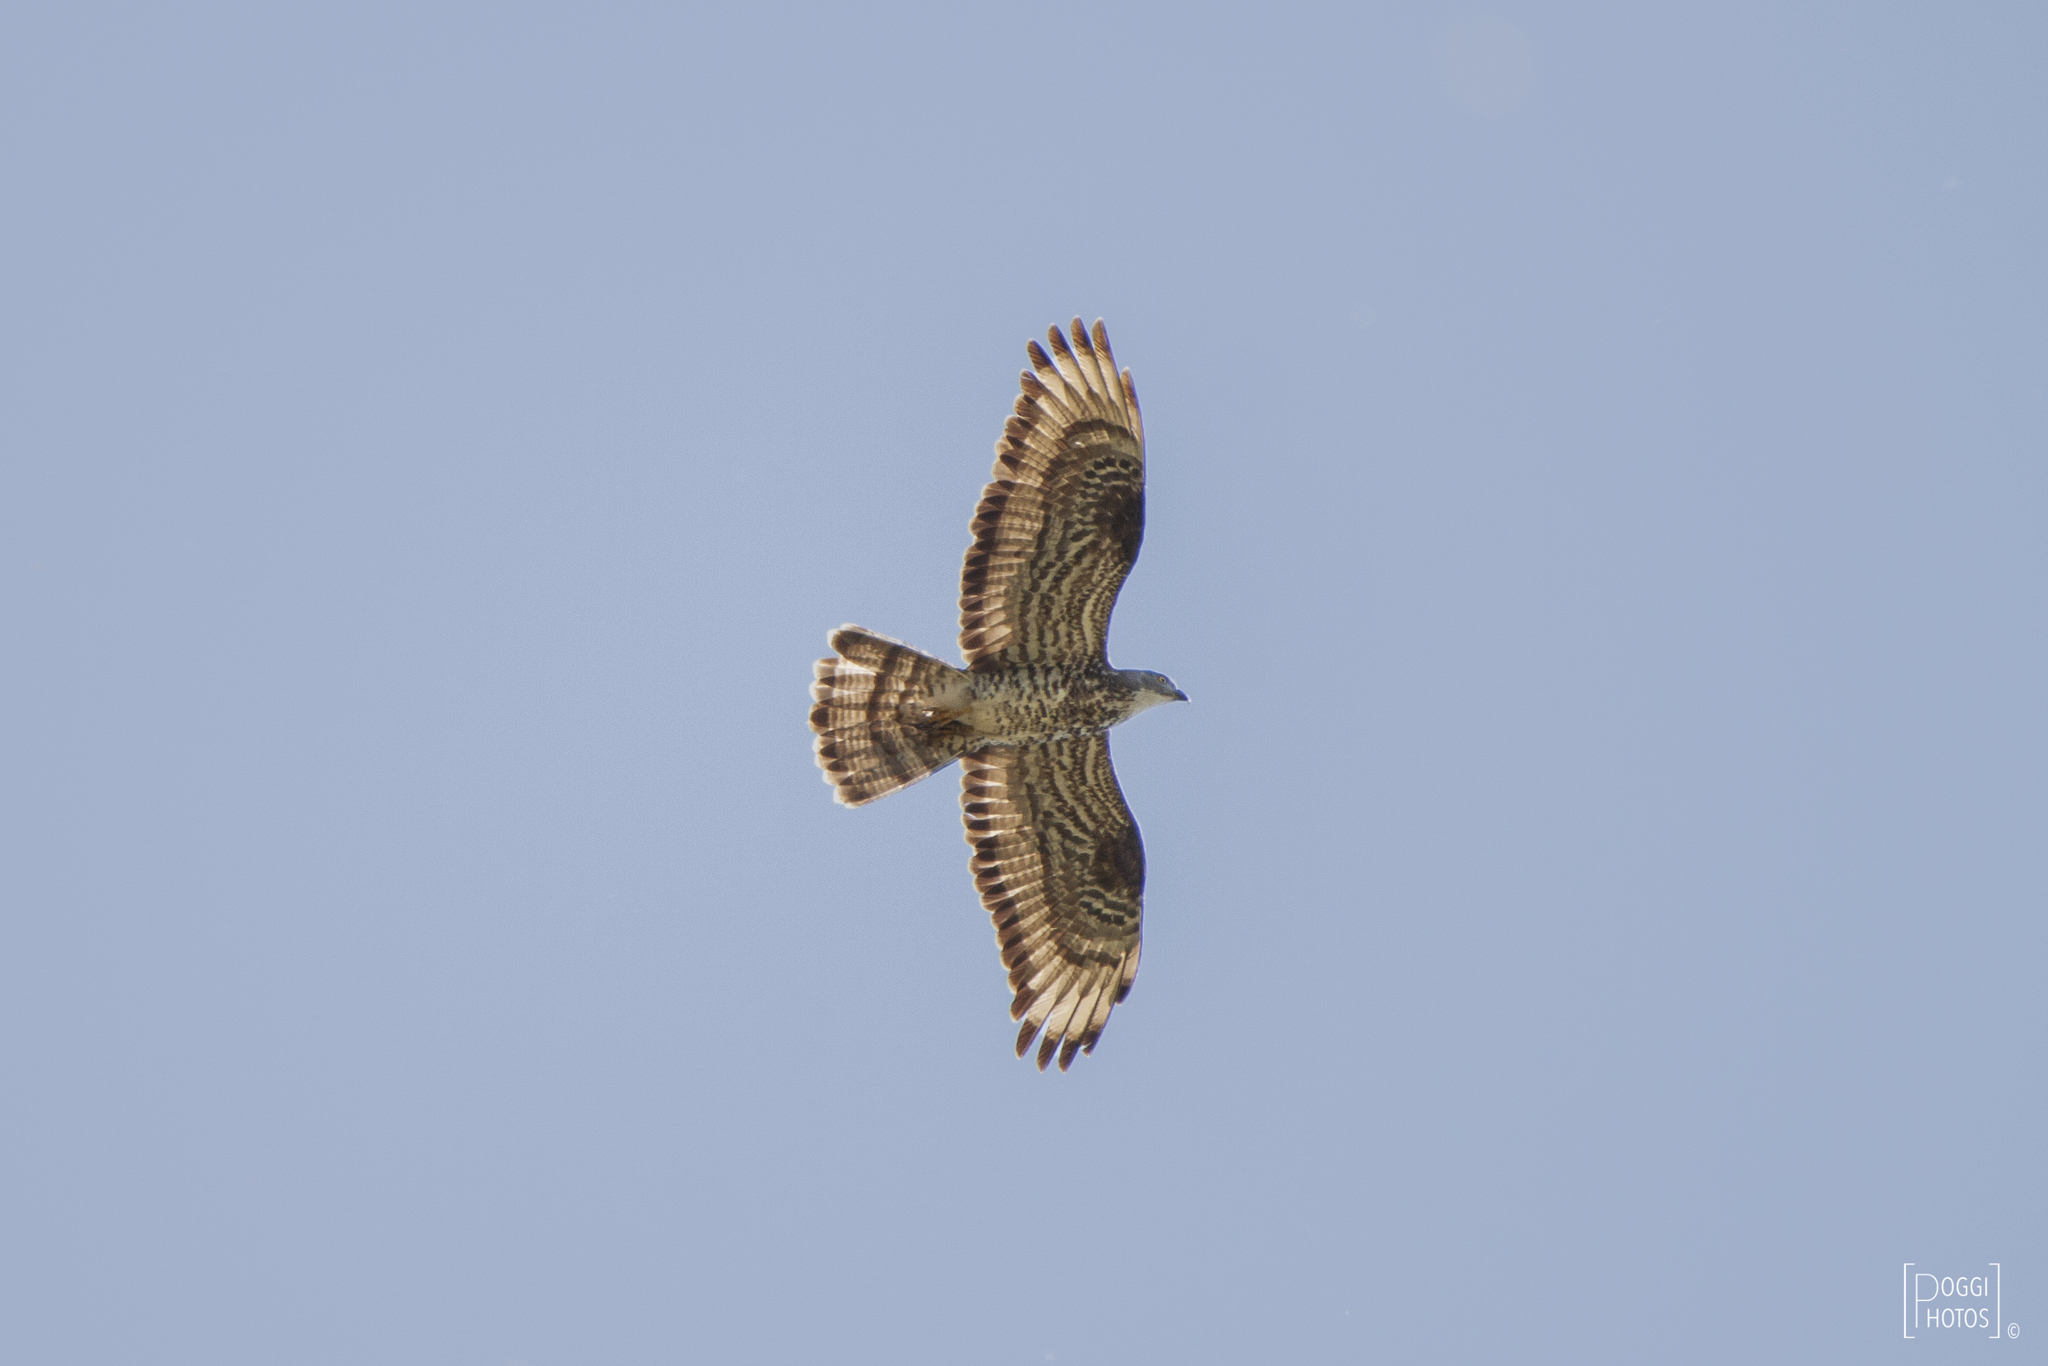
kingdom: Animalia
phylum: Chordata
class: Aves
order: Accipitriformes
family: Accipitridae
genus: Pernis
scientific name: Pernis apivorus
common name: European honey buzzard
